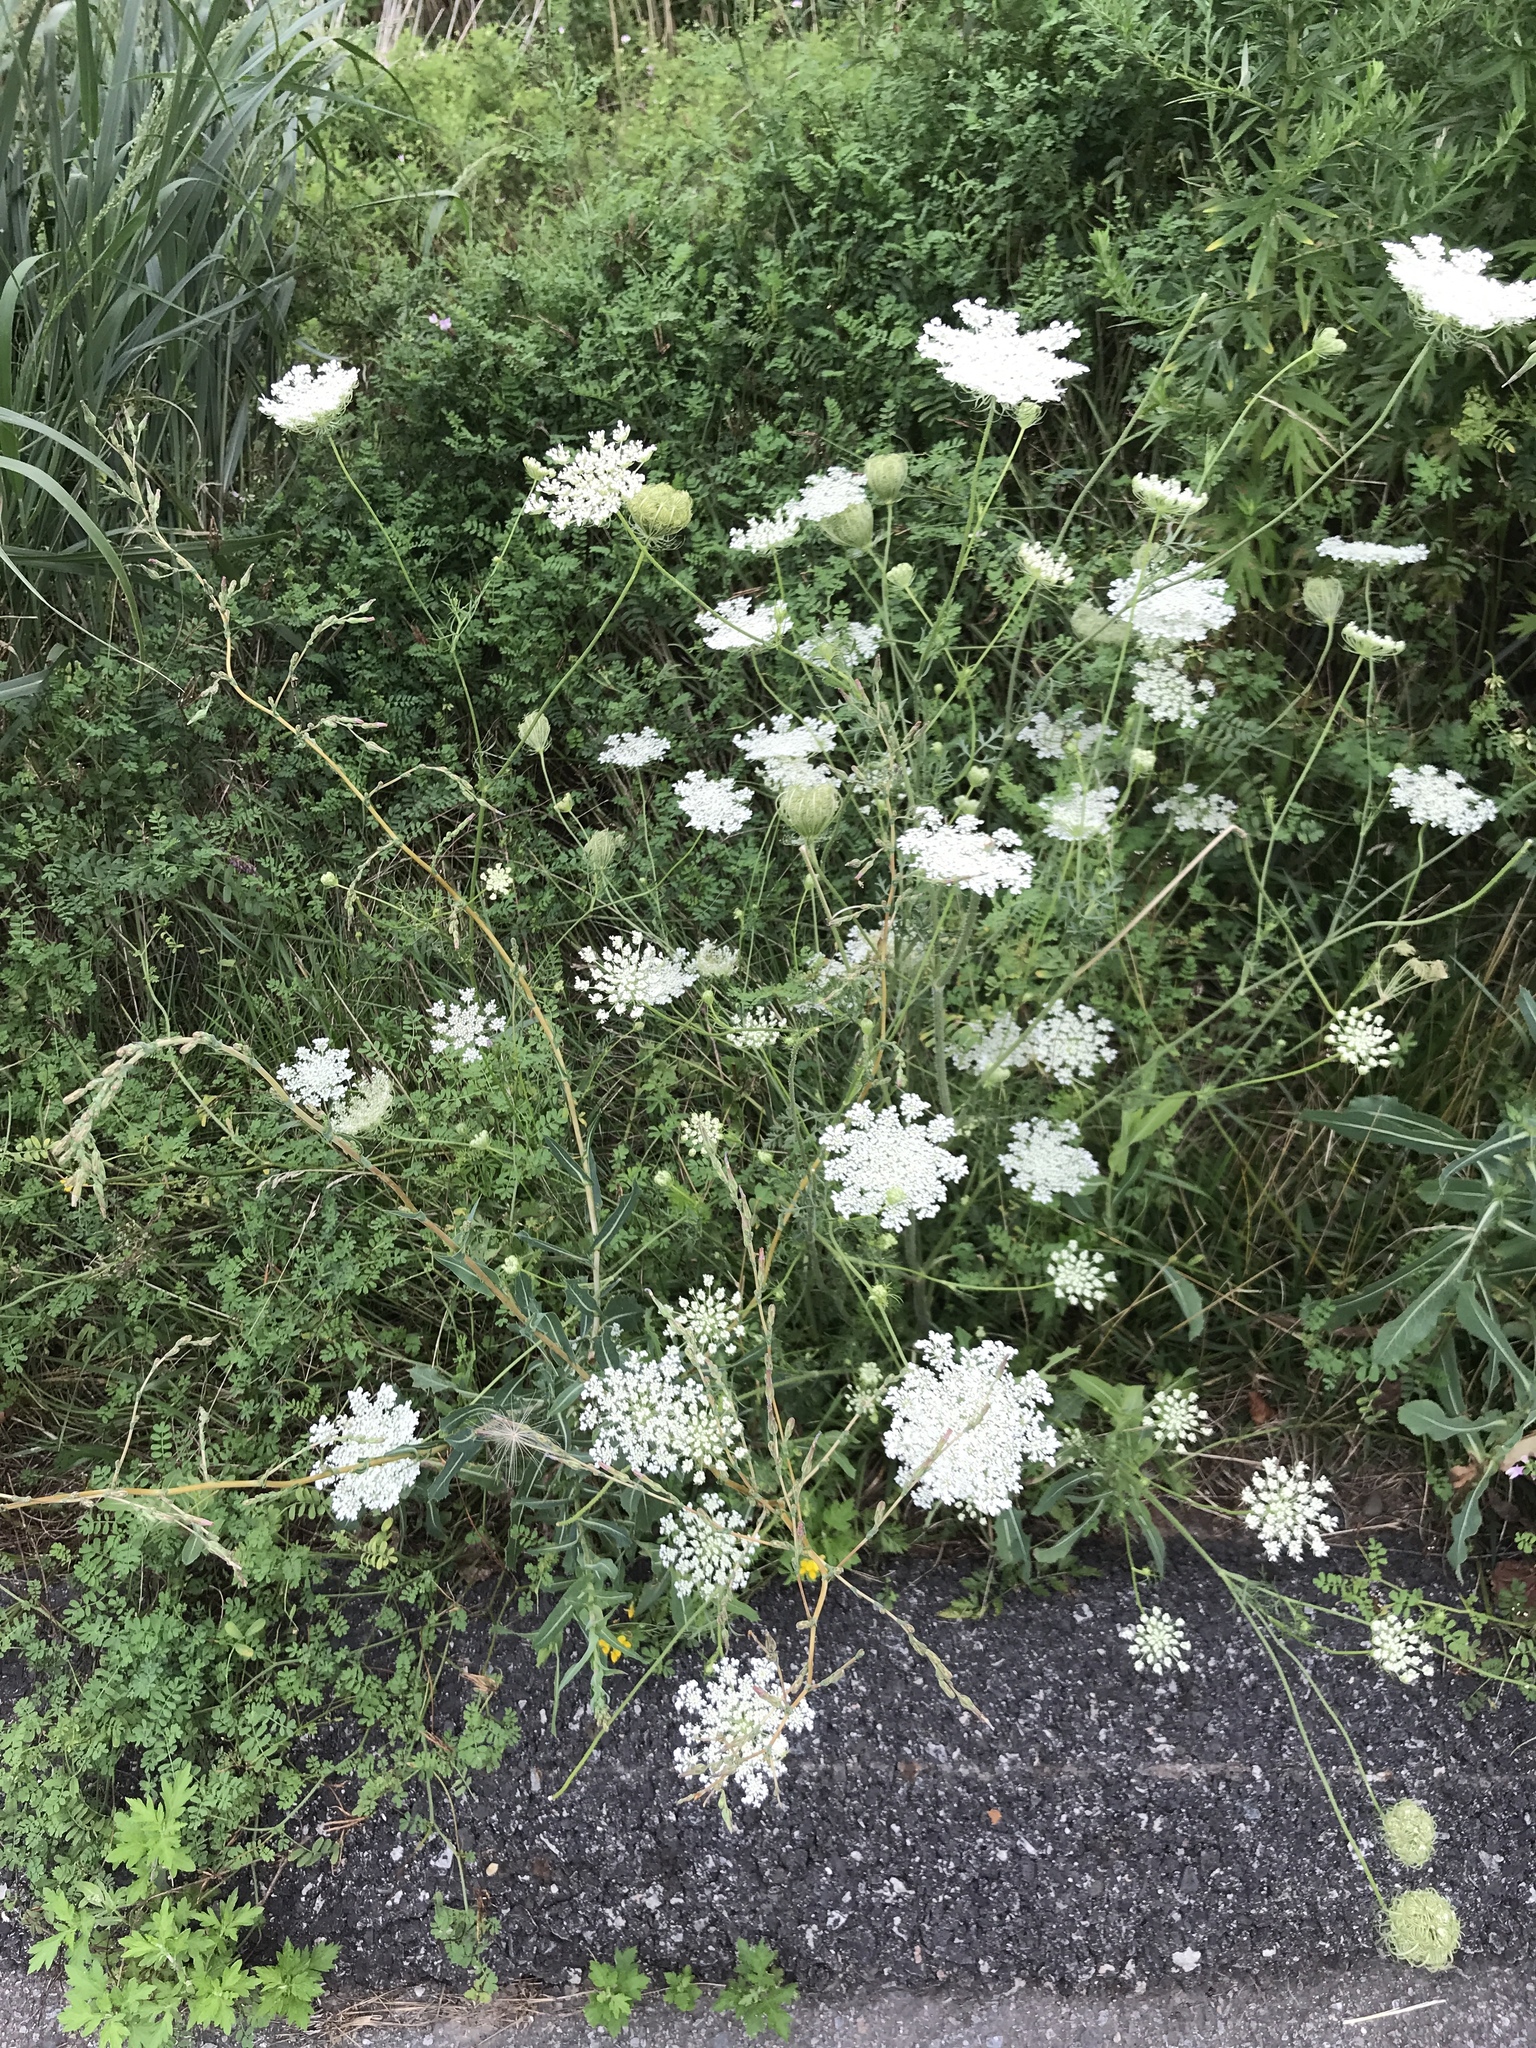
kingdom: Plantae
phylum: Tracheophyta
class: Magnoliopsida
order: Apiales
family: Apiaceae
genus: Daucus
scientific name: Daucus carota
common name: Wild carrot
